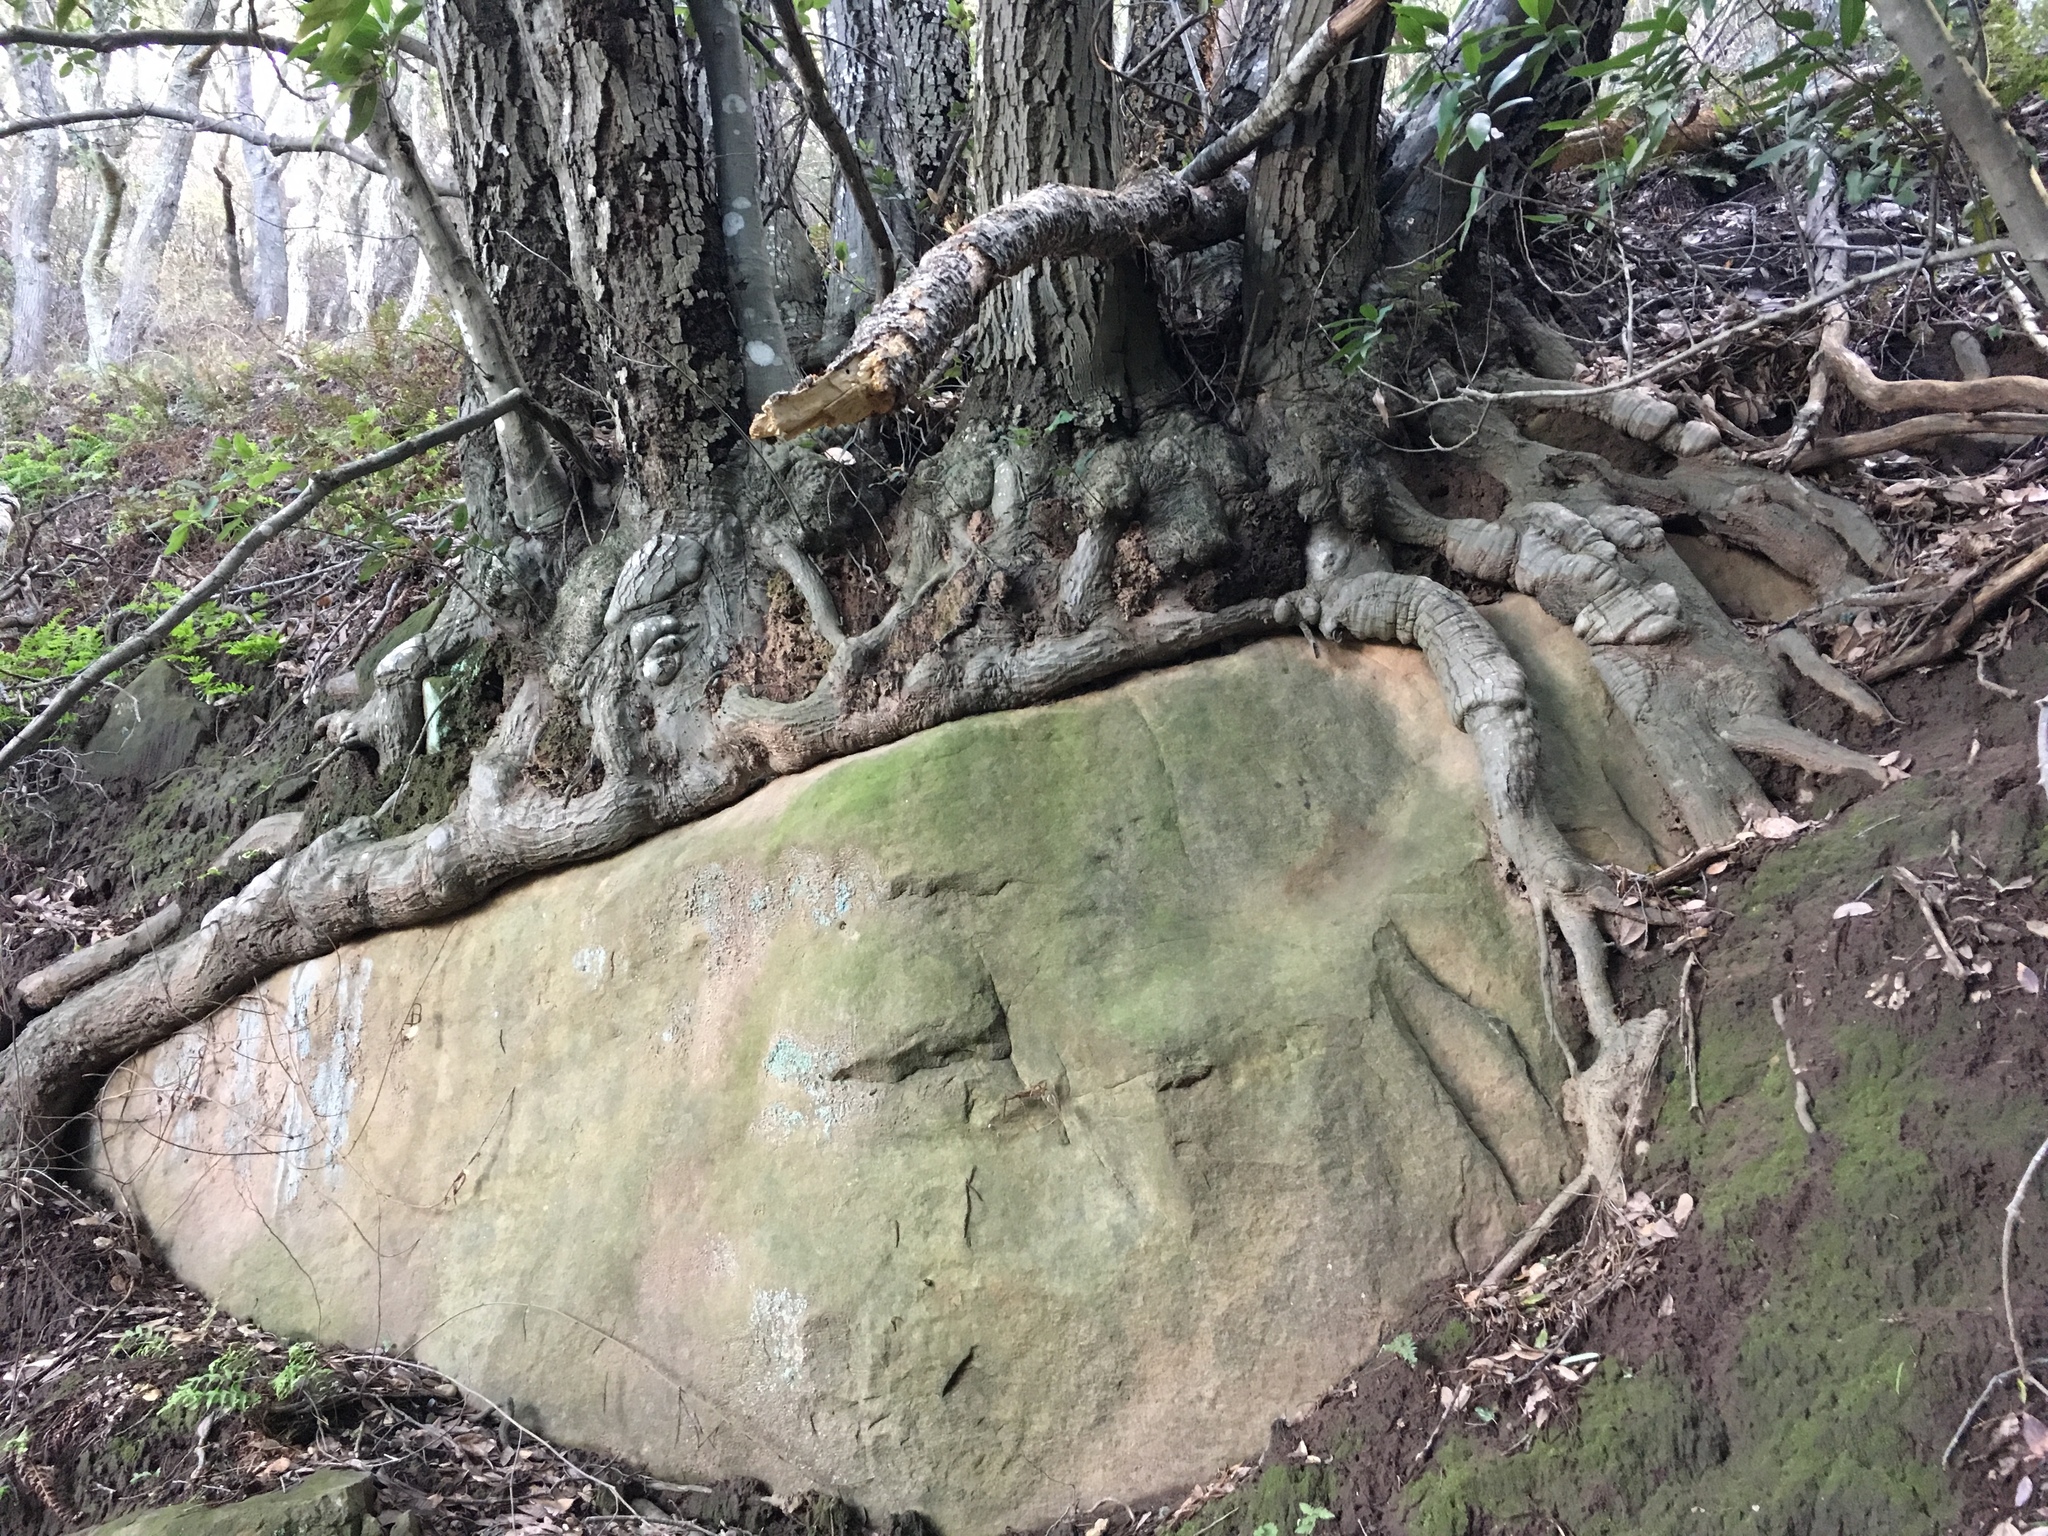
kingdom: Plantae
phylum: Tracheophyta
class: Magnoliopsida
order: Fagales
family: Fagaceae
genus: Notholithocarpus
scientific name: Notholithocarpus densiflorus
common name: Tan bark oak
